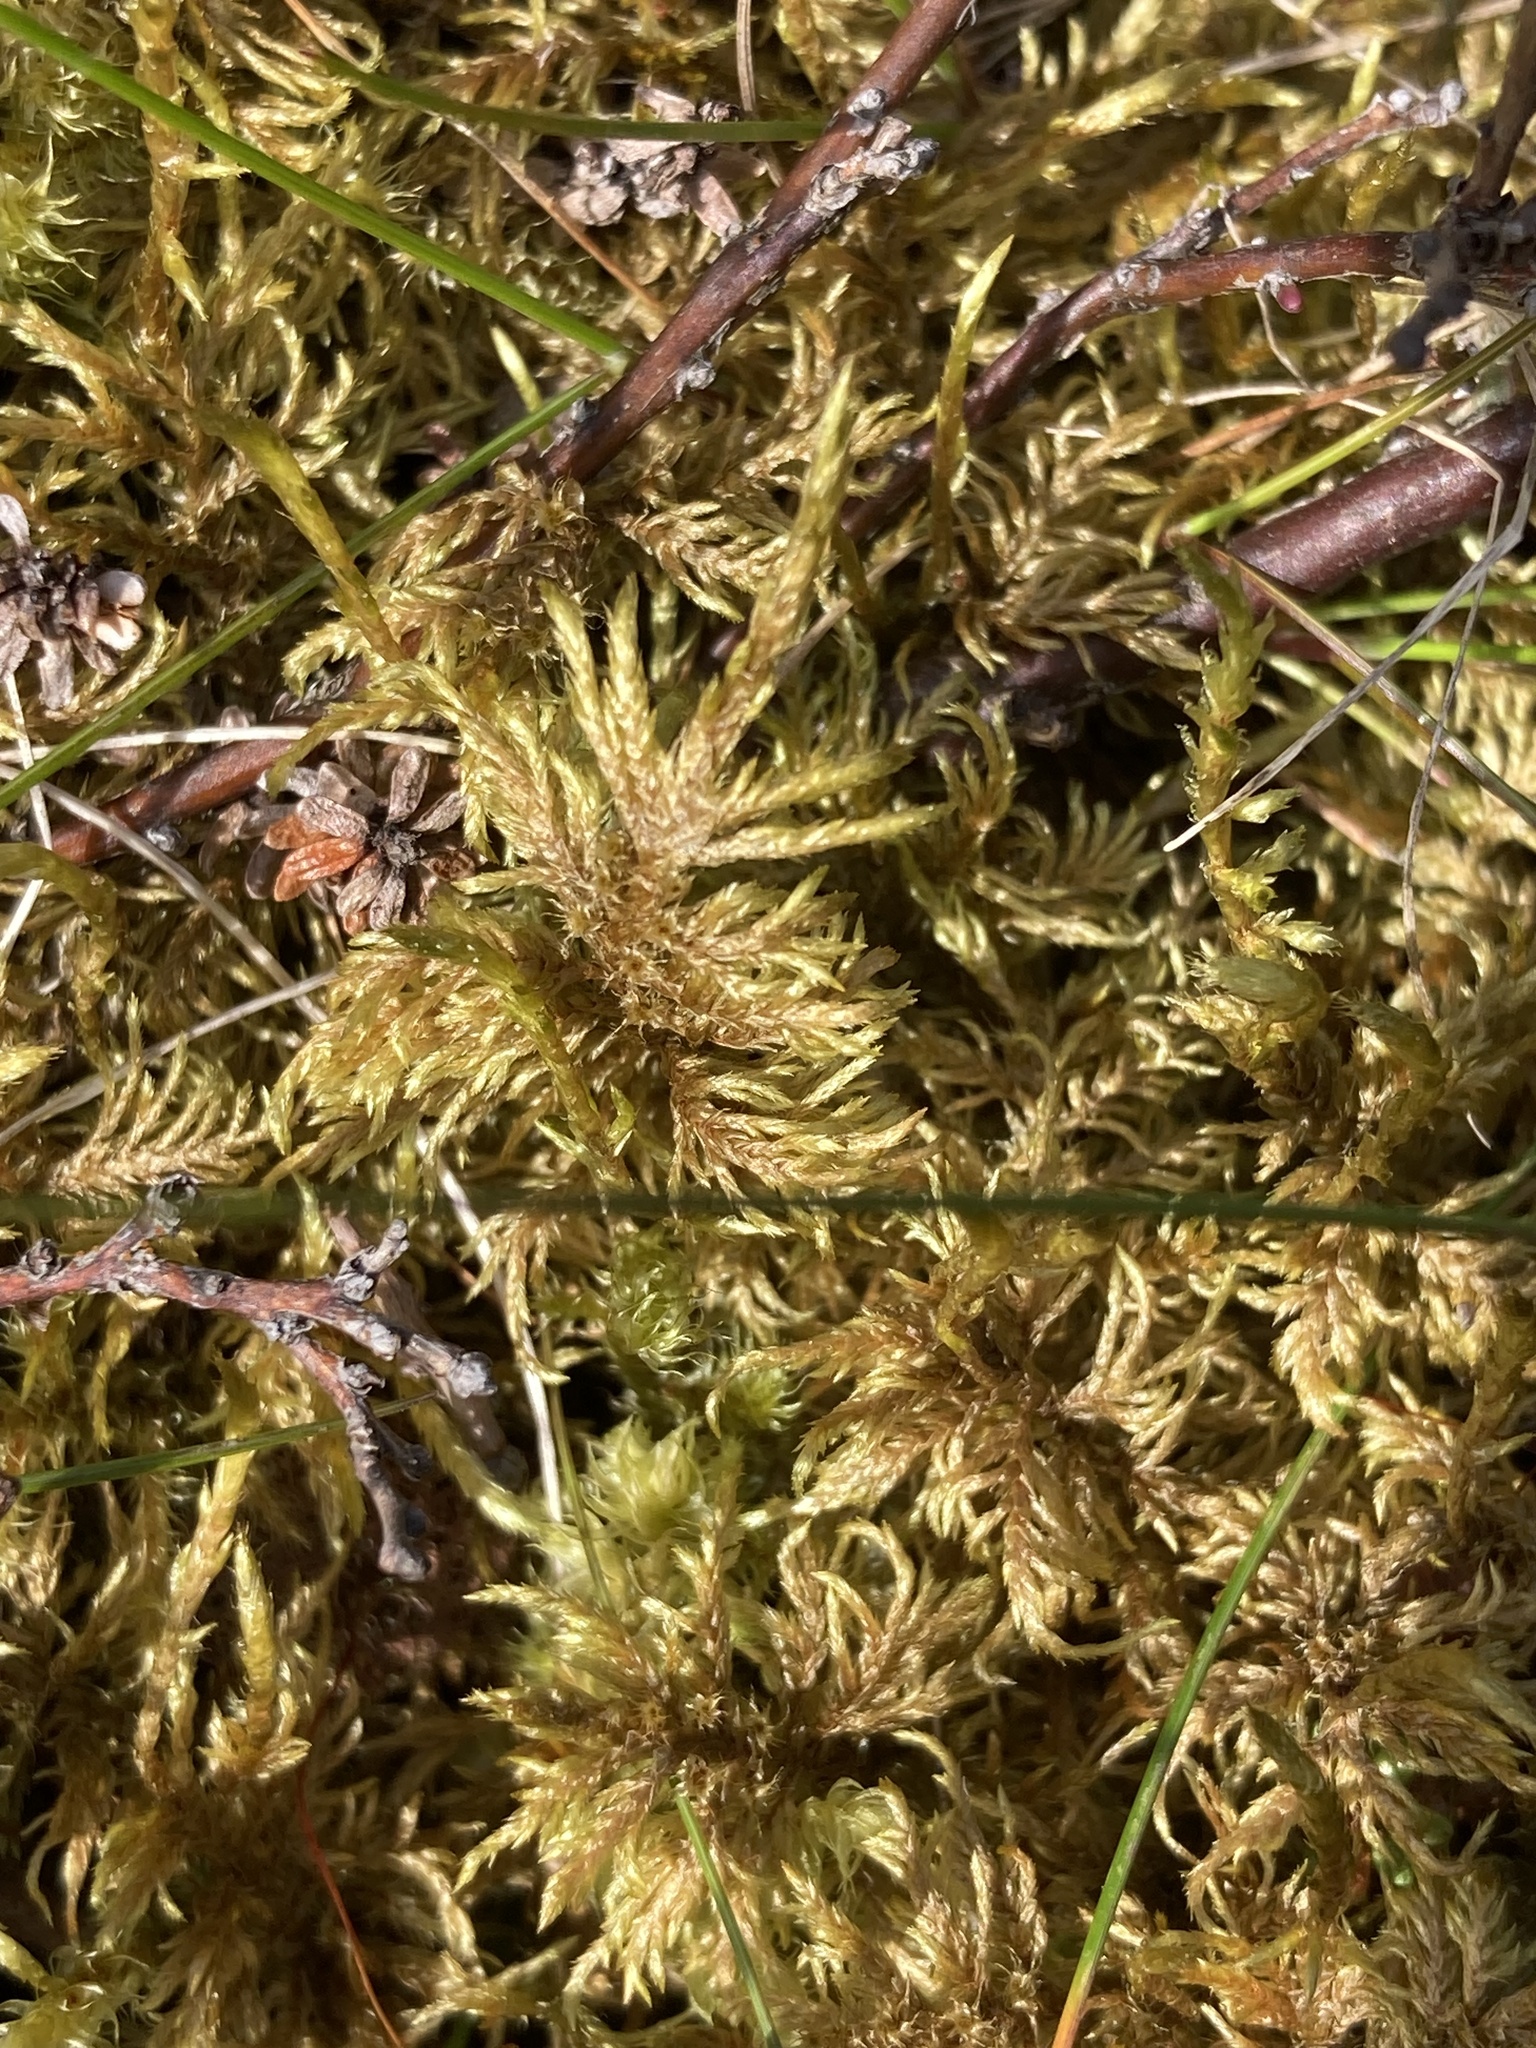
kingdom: Plantae
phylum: Bryophyta
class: Bryopsida
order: Hypnales
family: Hylocomiaceae
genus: Hylocomium
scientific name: Hylocomium splendens
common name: Stairstep moss
